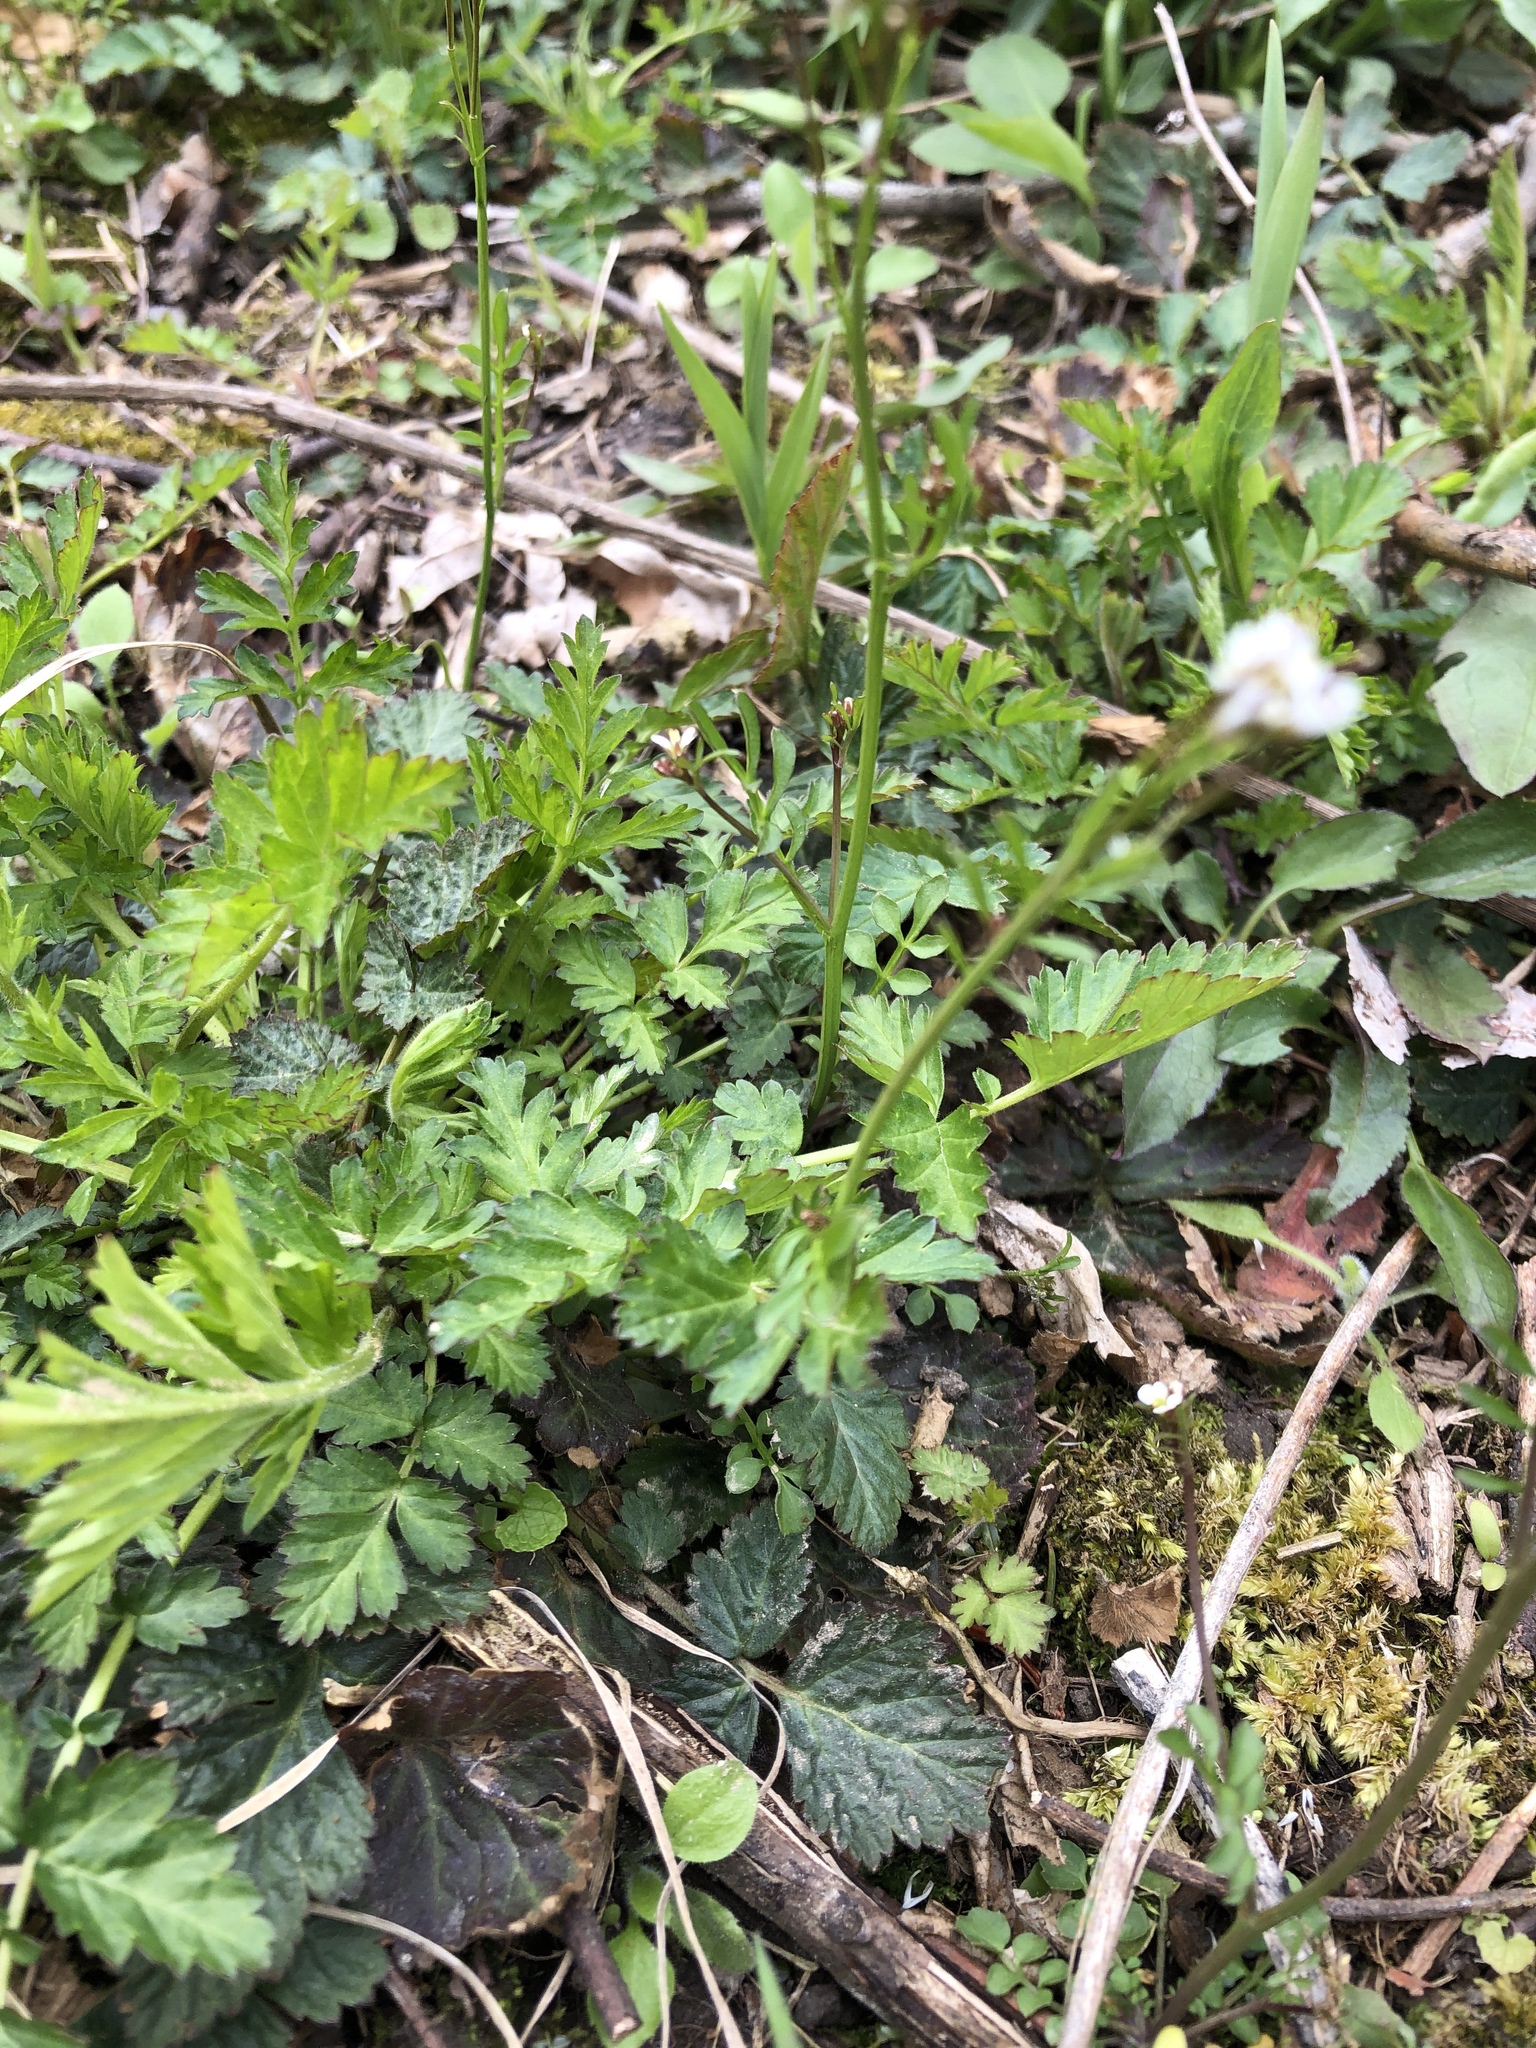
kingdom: Plantae
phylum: Tracheophyta
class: Magnoliopsida
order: Brassicales
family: Brassicaceae
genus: Cardamine
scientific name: Cardamine hirsuta
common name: Hairy bittercress
